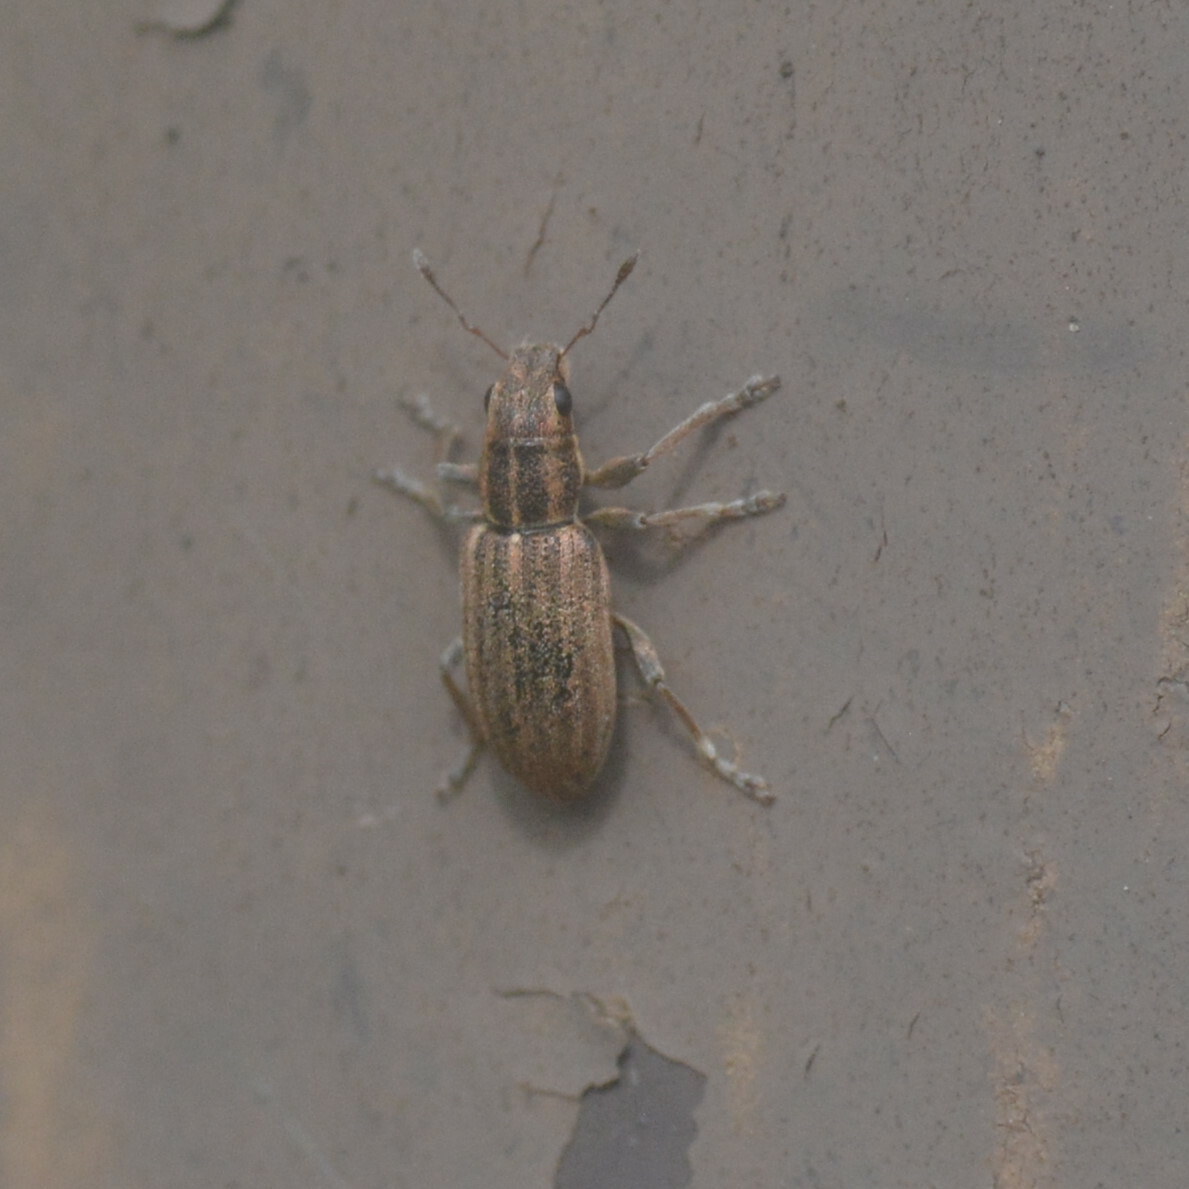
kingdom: Animalia
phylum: Arthropoda
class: Insecta
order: Coleoptera
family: Curculionidae
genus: Sitona
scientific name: Sitona lineatus
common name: Weevil
